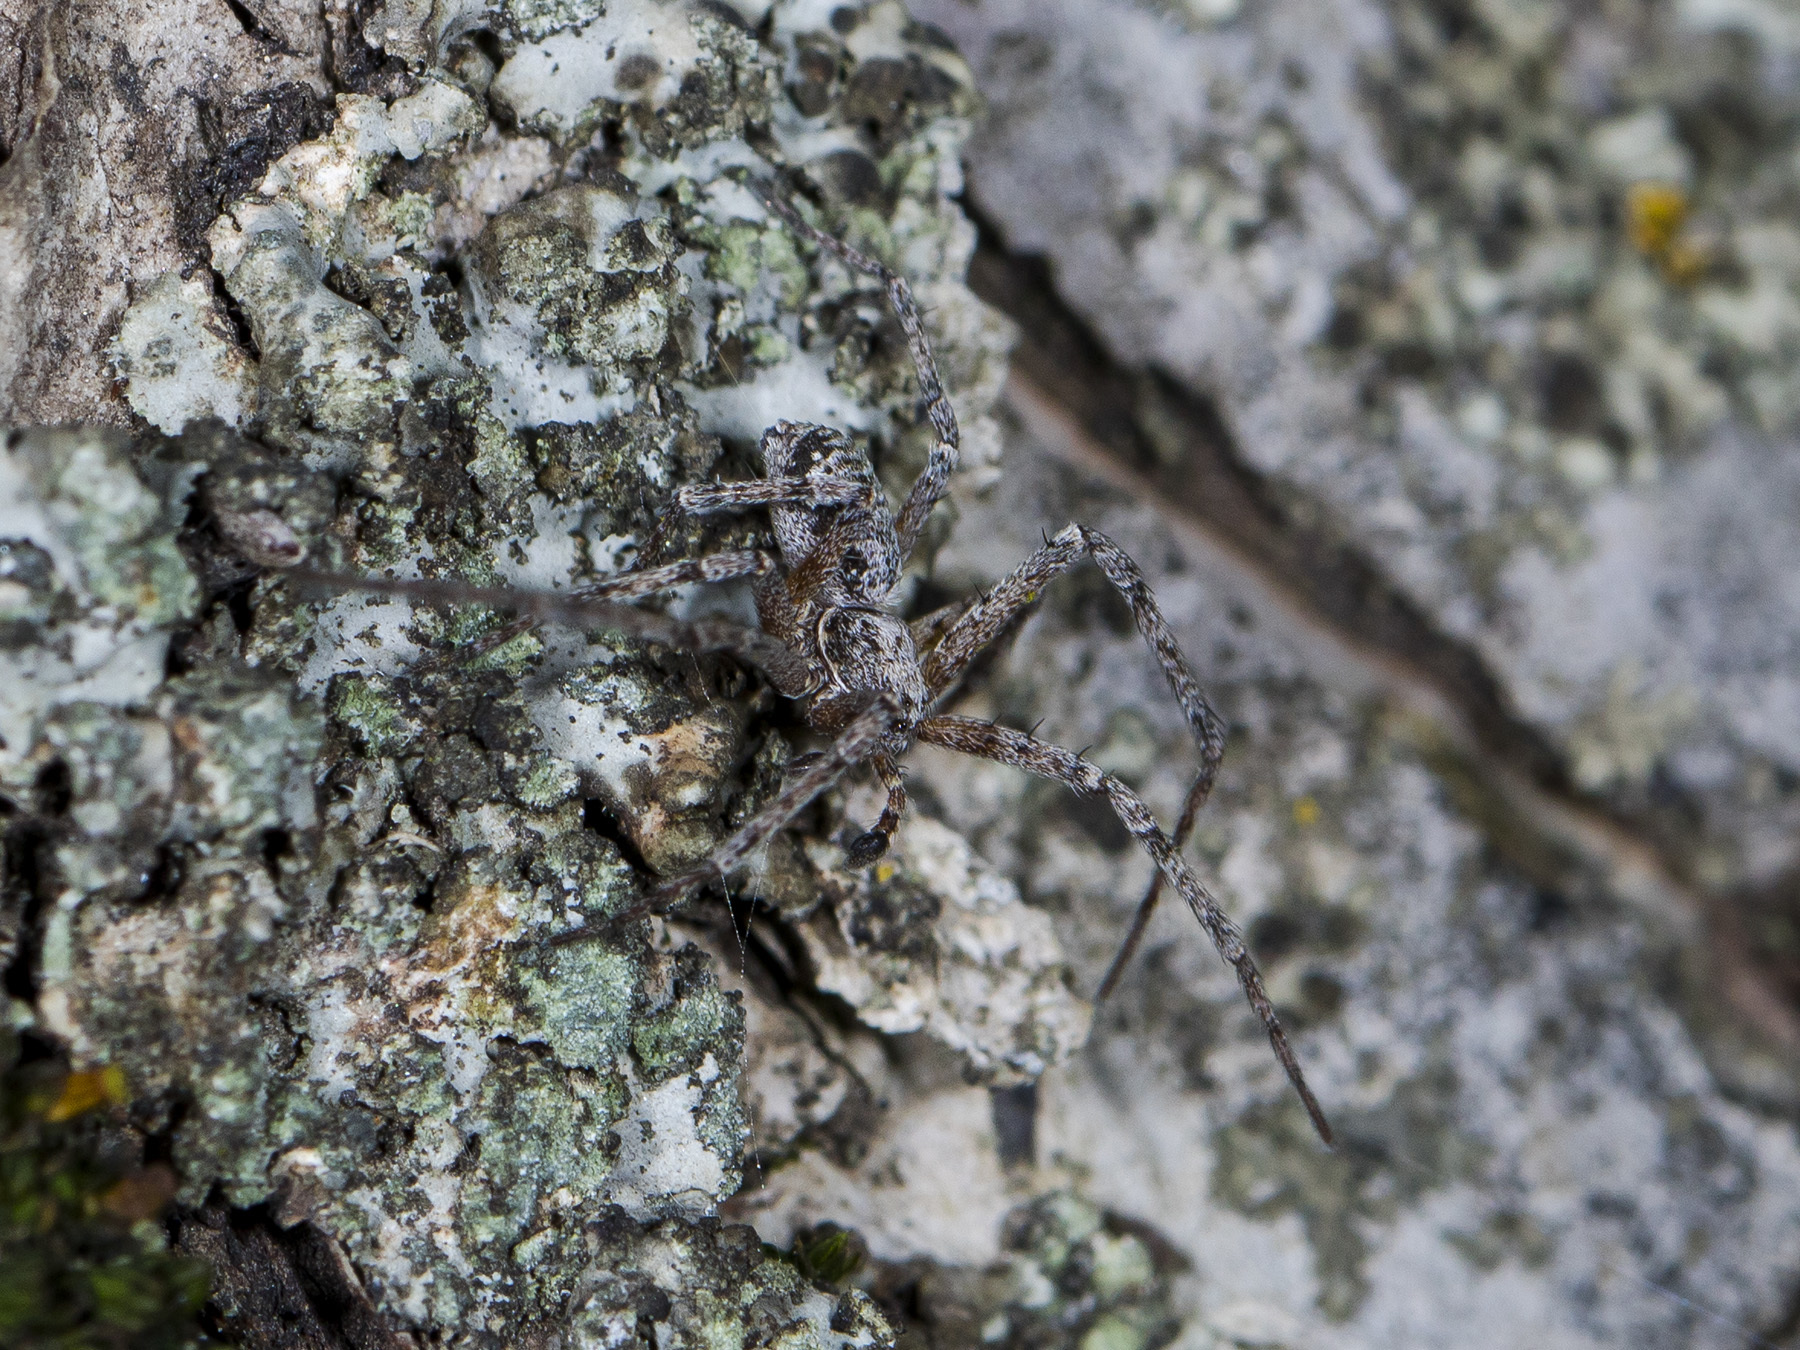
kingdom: Animalia
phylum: Arthropoda
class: Arachnida
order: Araneae
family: Philodromidae
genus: Rhysodromus
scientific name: Rhysodromus pictus
